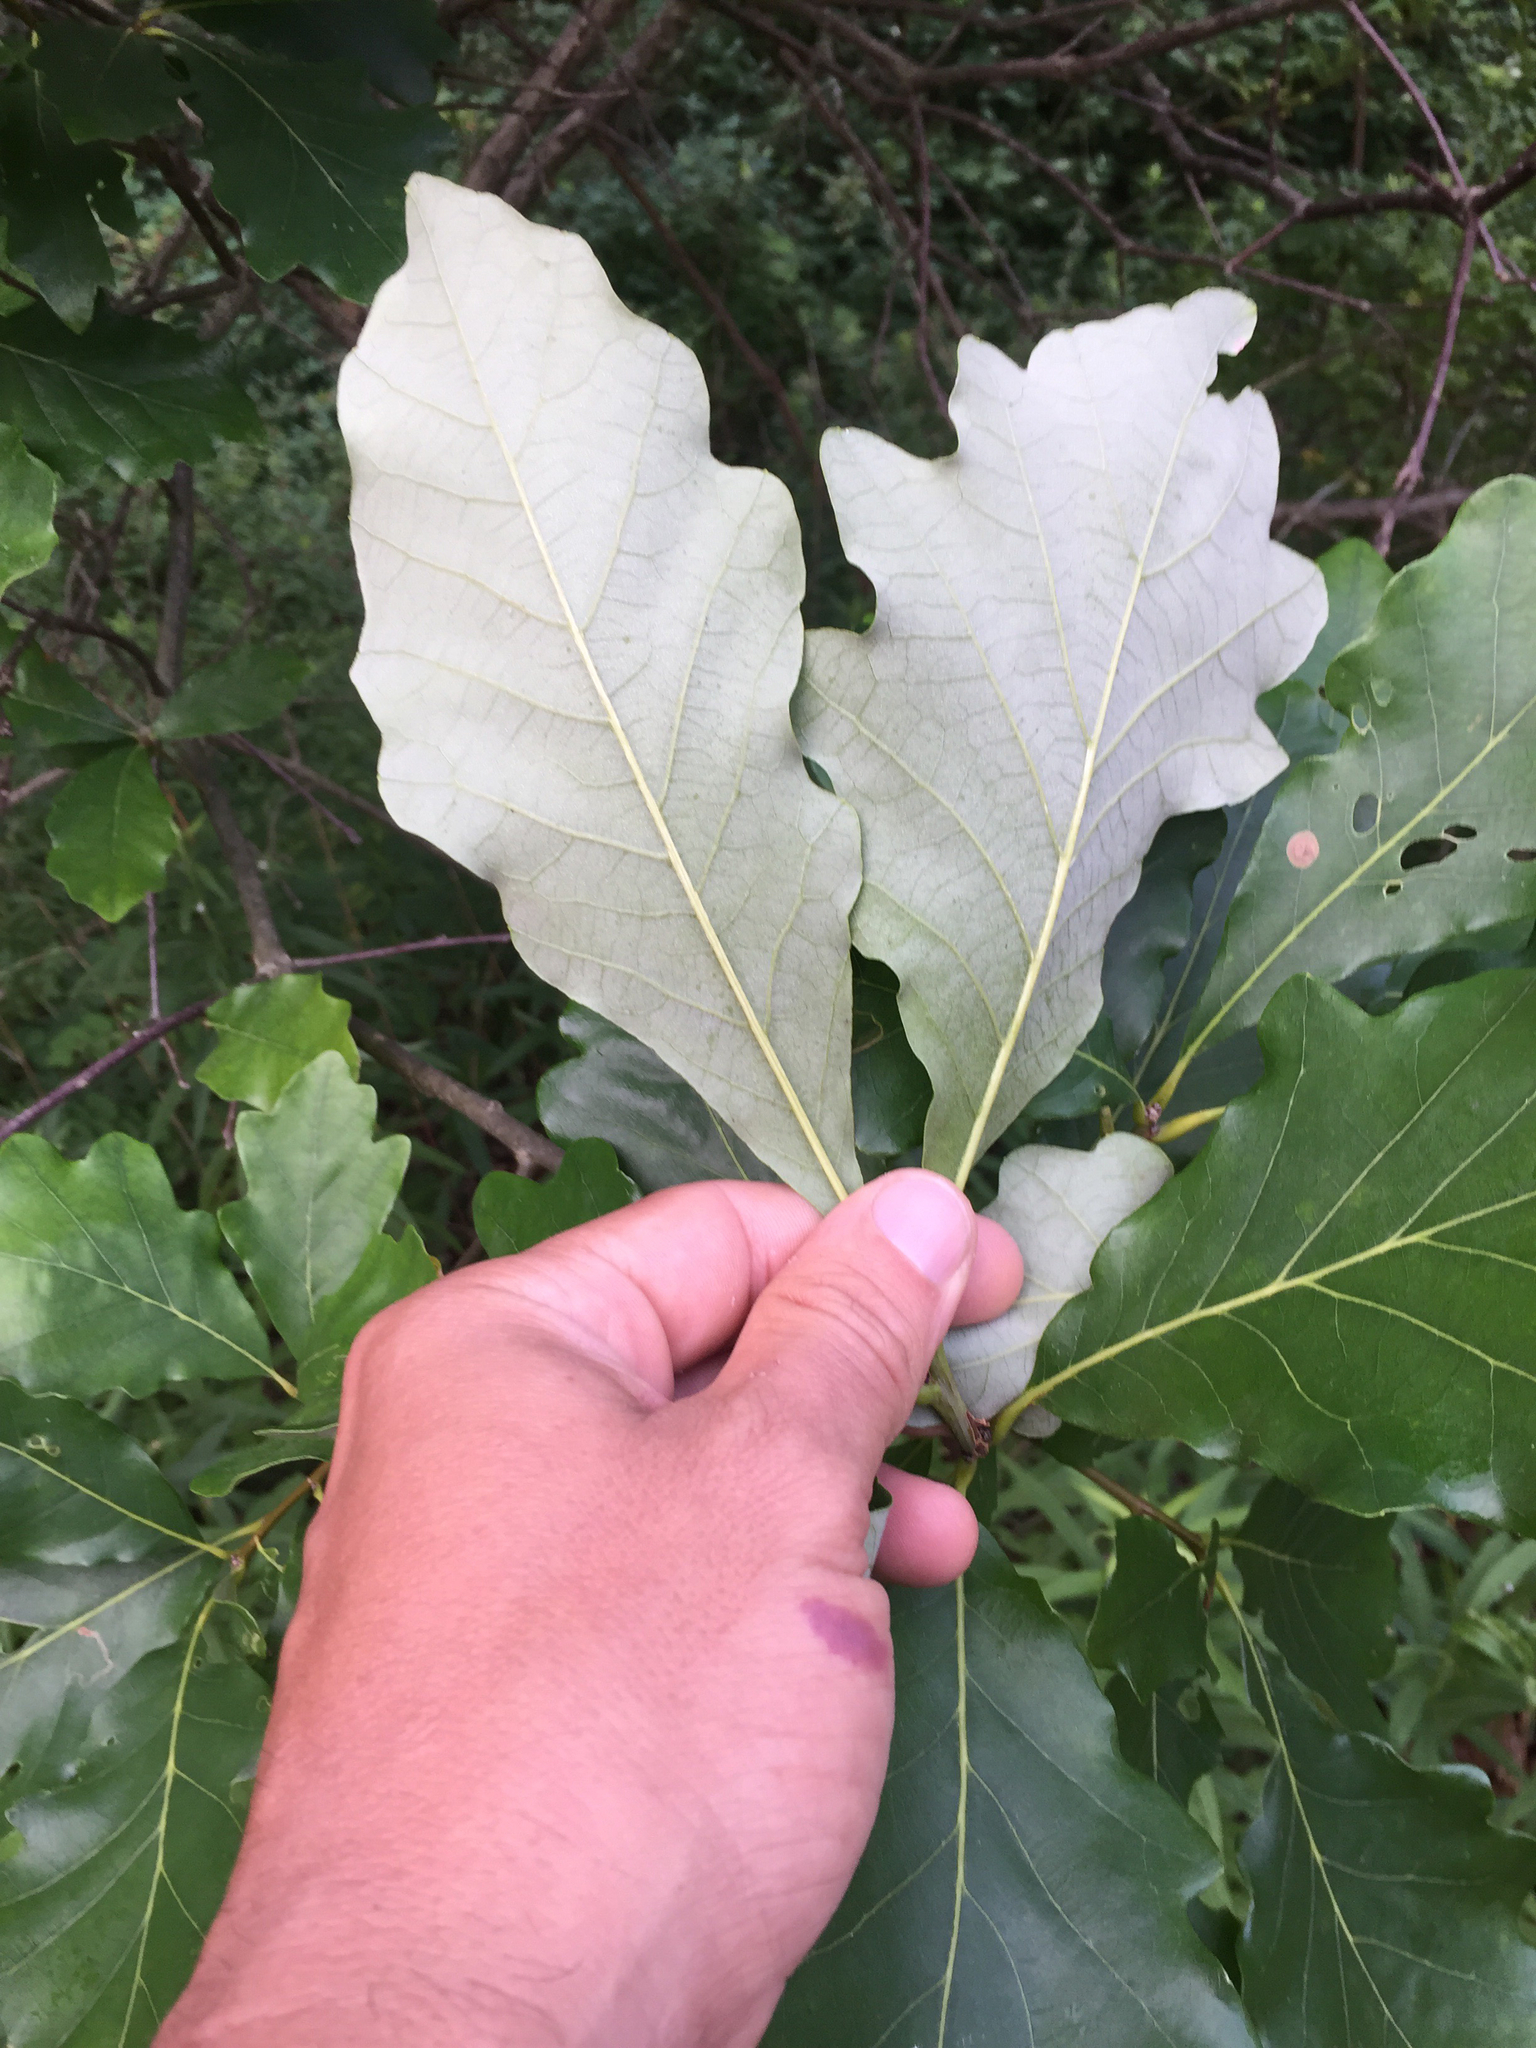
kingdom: Plantae
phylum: Tracheophyta
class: Magnoliopsida
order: Fagales
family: Fagaceae
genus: Quercus
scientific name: Quercus bicolor
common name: Swamp white oak
